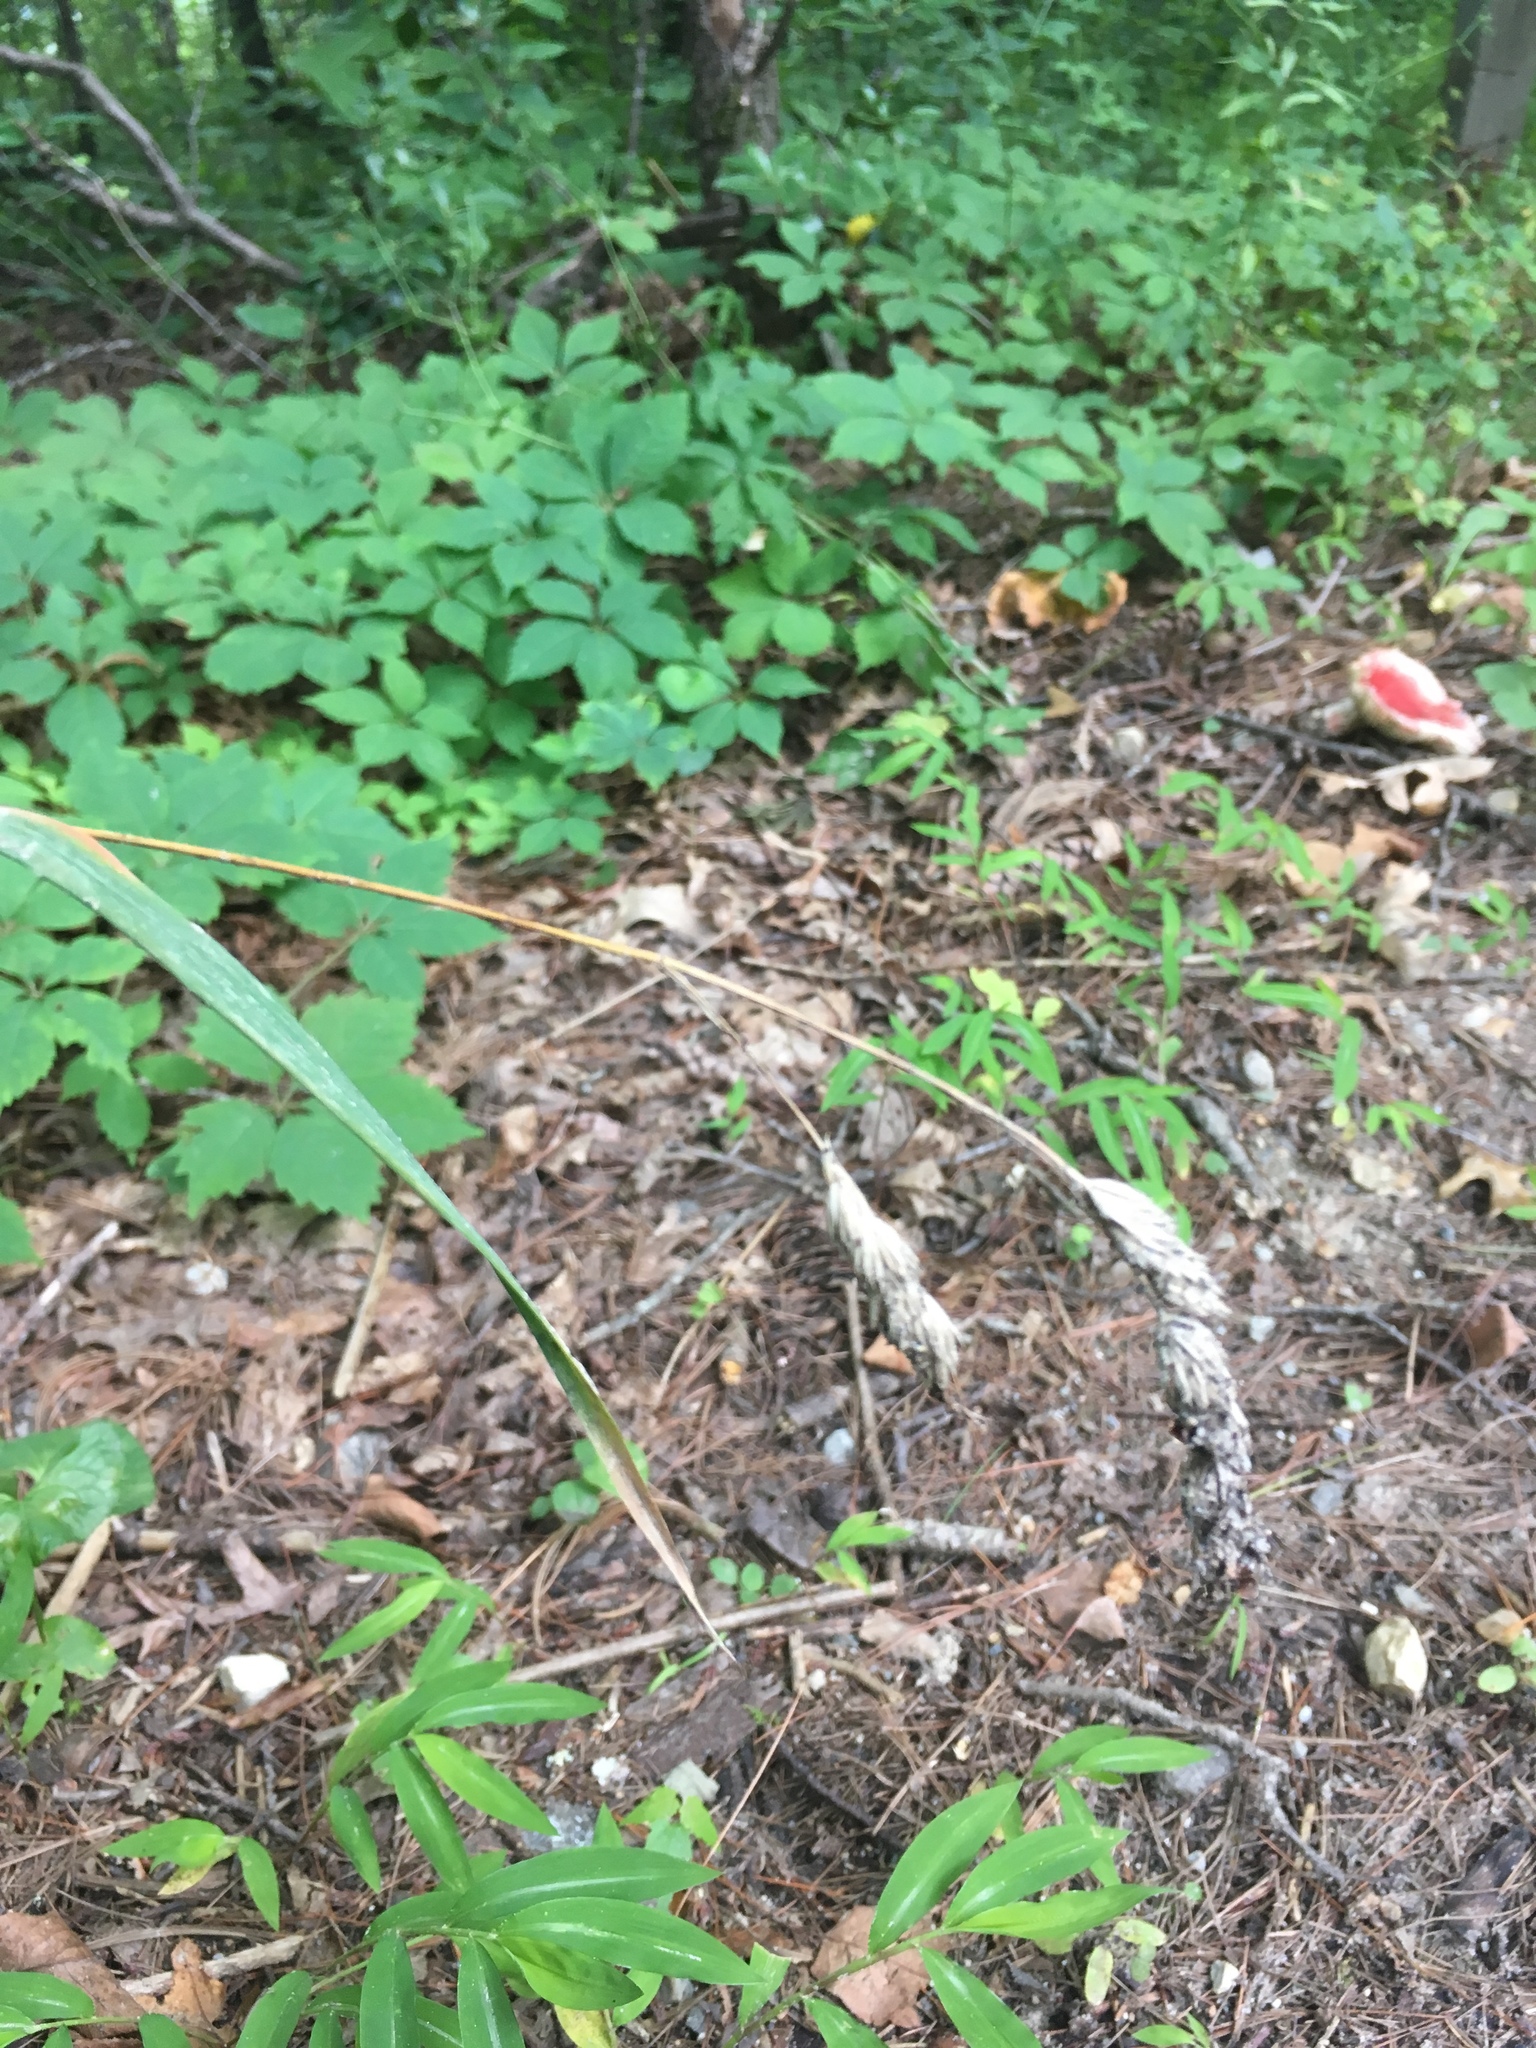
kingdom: Plantae
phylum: Tracheophyta
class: Liliopsida
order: Poales
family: Poaceae
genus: Dactylis
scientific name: Dactylis glomerata
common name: Orchardgrass
